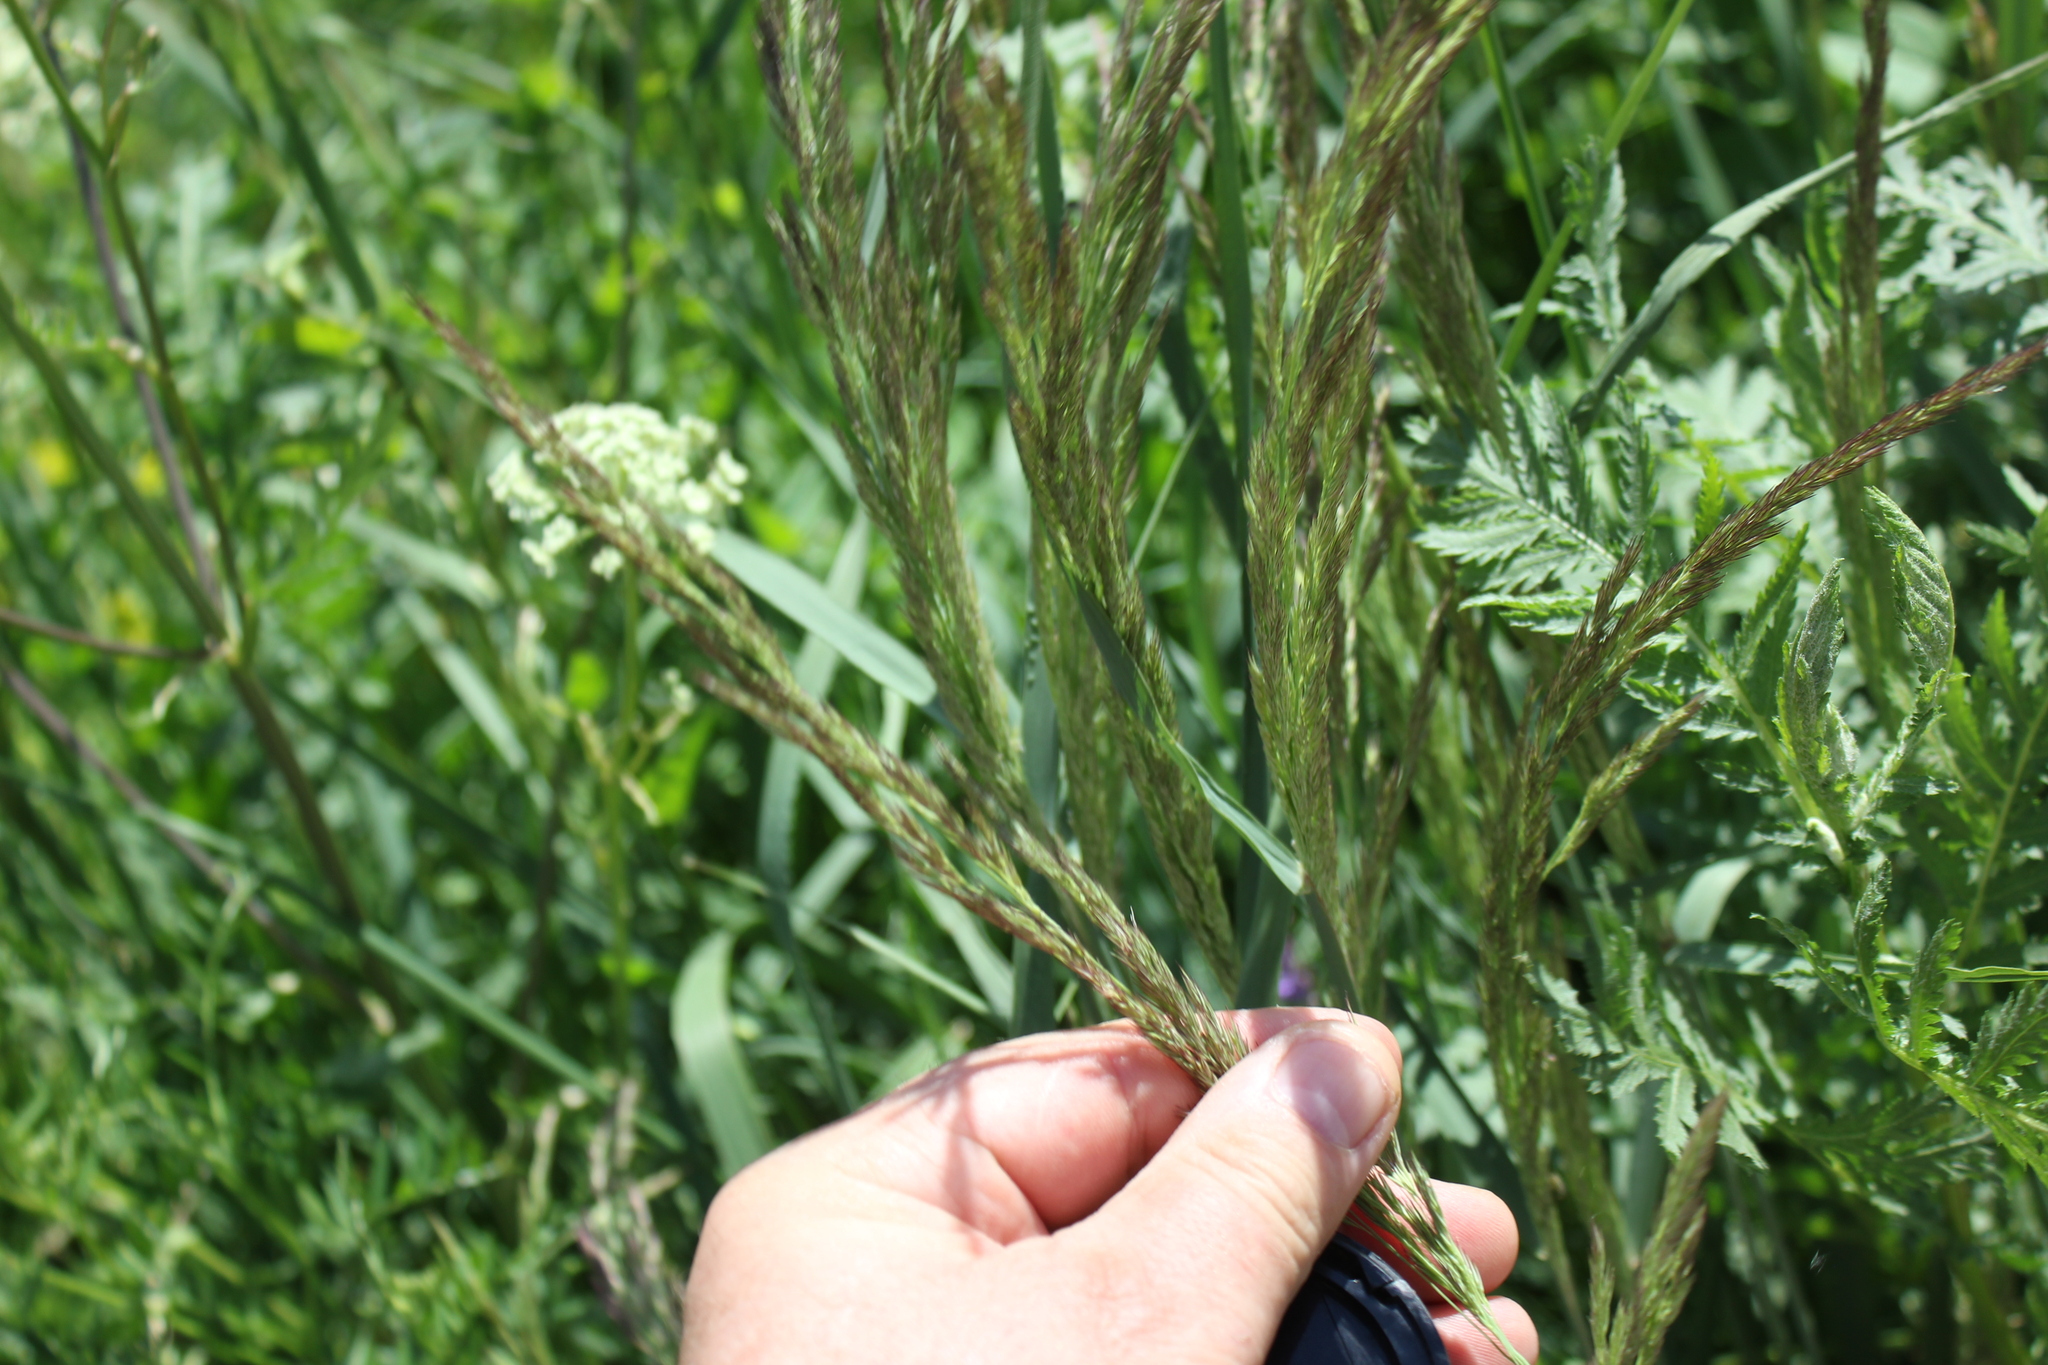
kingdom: Plantae
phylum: Tracheophyta
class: Liliopsida
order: Poales
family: Poaceae
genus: Calamagrostis
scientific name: Calamagrostis epigejos
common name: Wood small-reed
